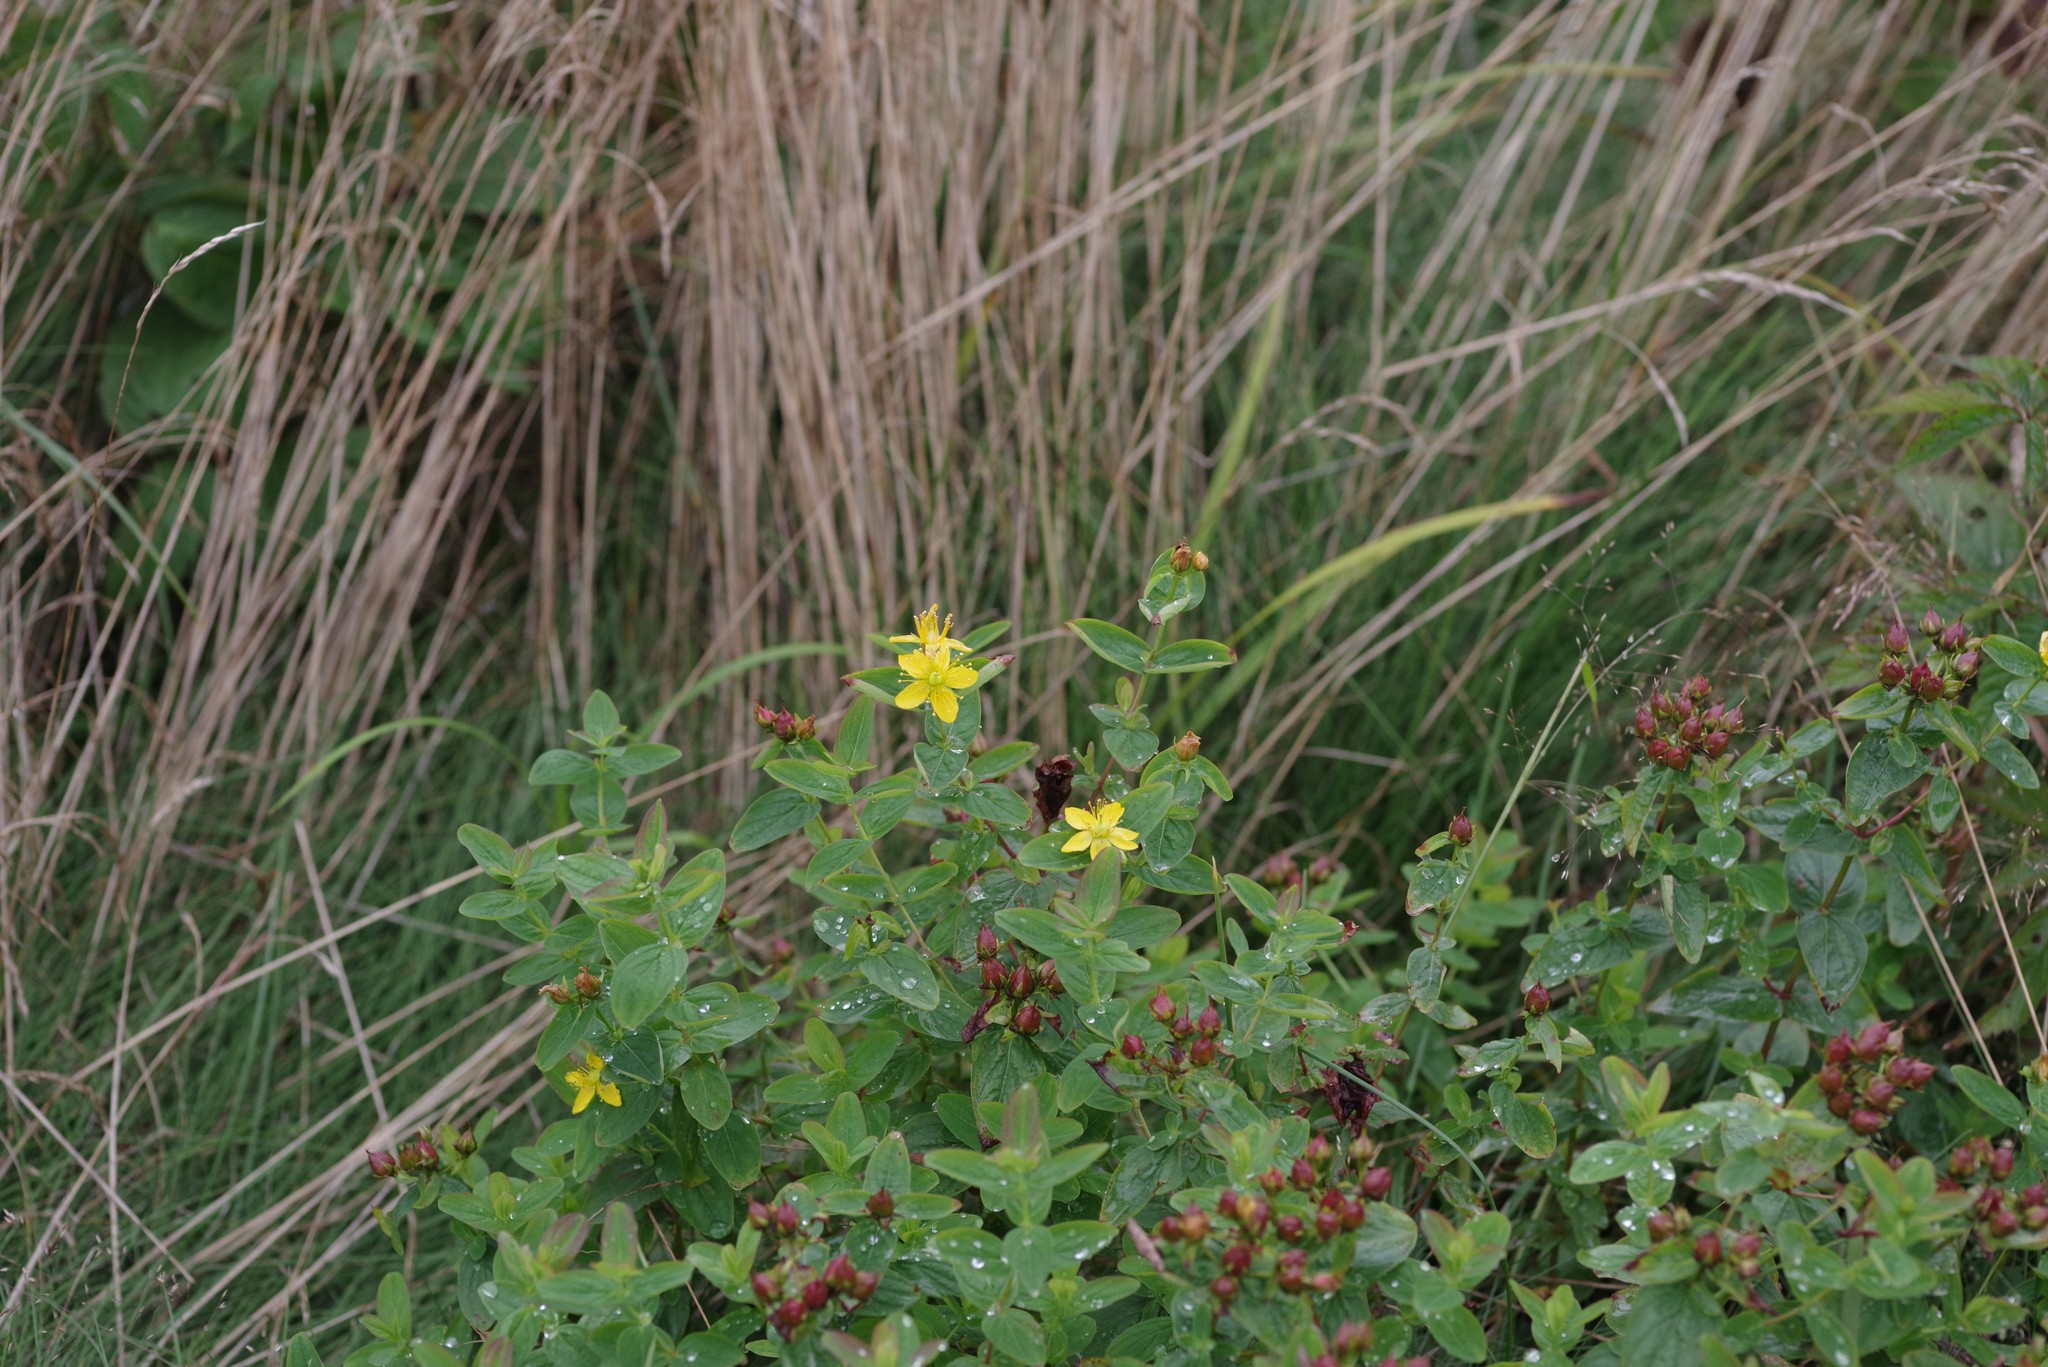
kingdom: Plantae
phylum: Tracheophyta
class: Magnoliopsida
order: Malpighiales
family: Hypericaceae
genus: Hypericum
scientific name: Hypericum mitchellianum
